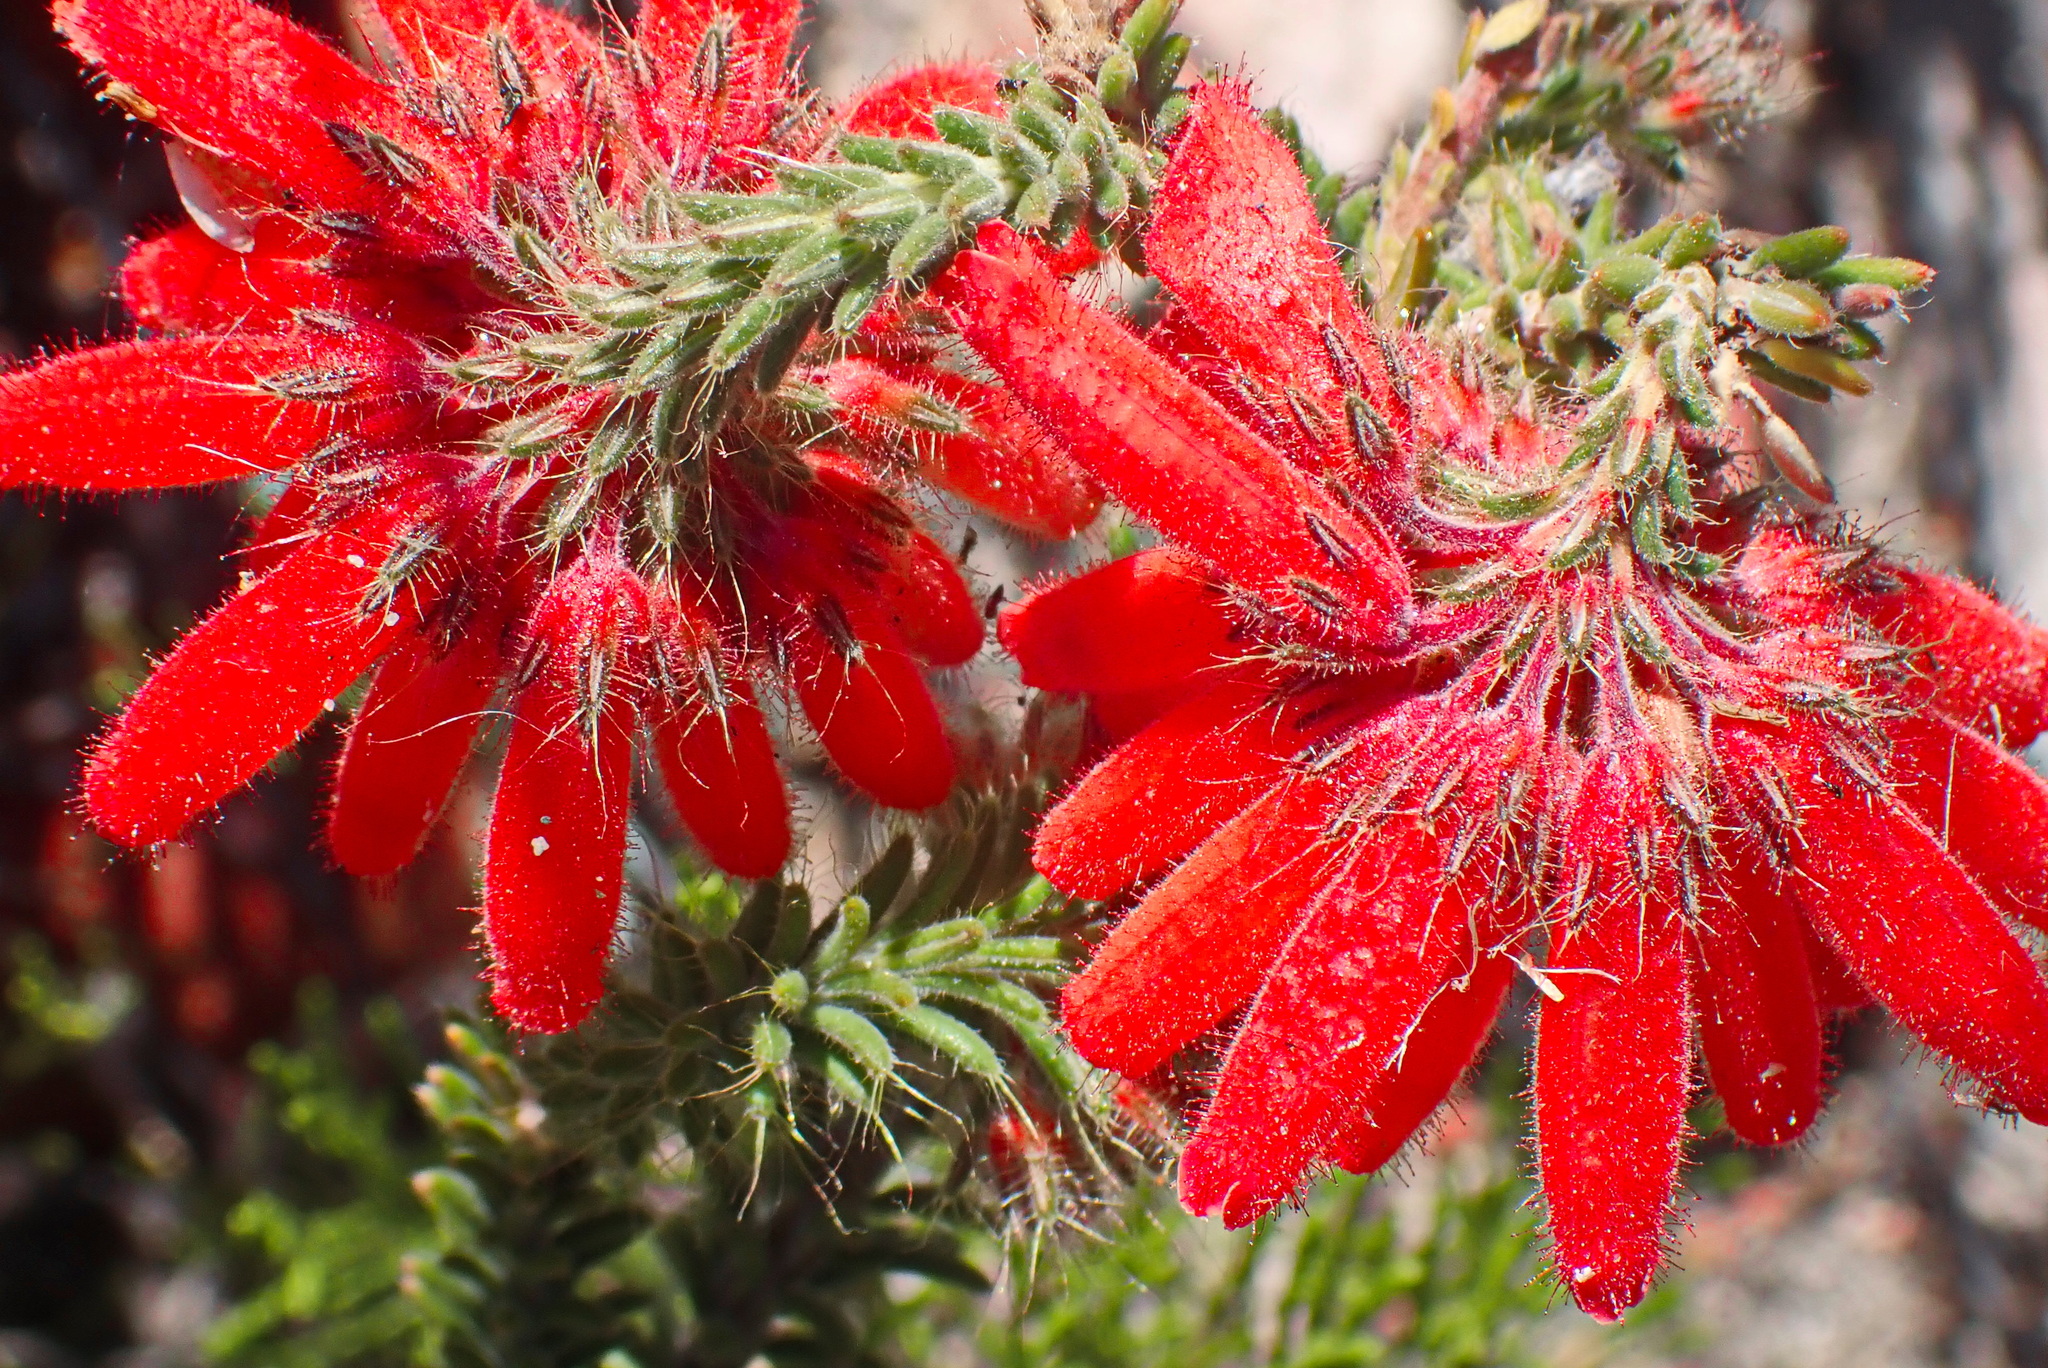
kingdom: Plantae
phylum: Tracheophyta
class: Magnoliopsida
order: Ericales
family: Ericaceae
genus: Erica
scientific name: Erica cerinthoides
